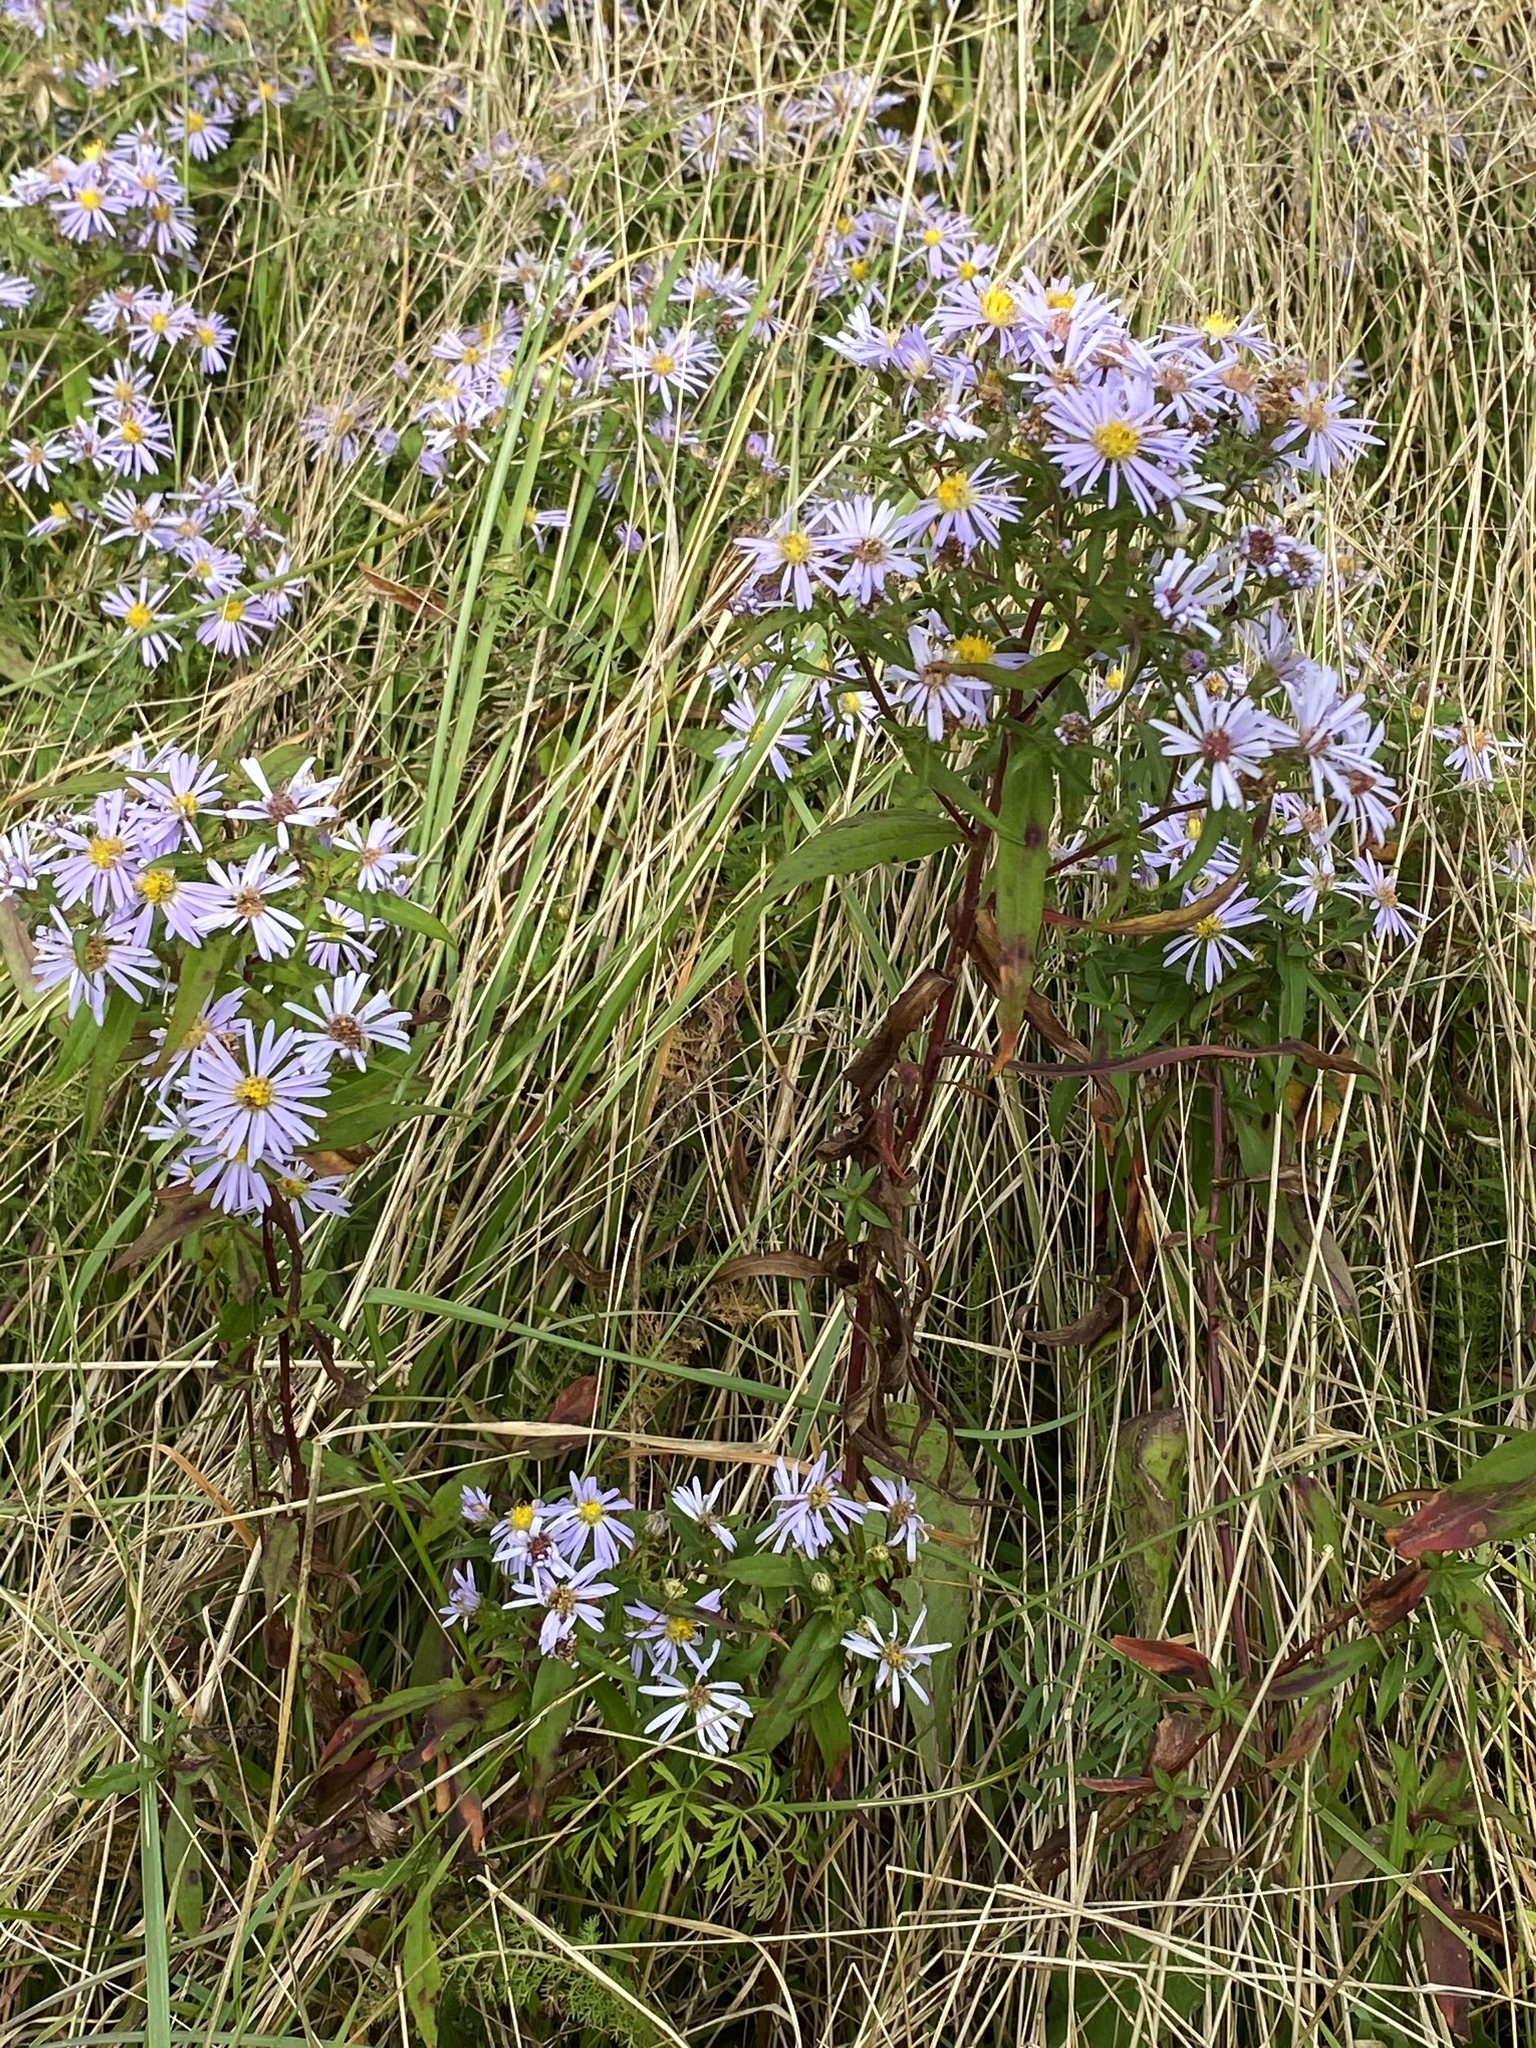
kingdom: Plantae
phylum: Tracheophyta
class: Magnoliopsida
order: Asterales
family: Asteraceae
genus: Symphyotrichum
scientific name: Symphyotrichum novi-belgii
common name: Michaelmas daisy
